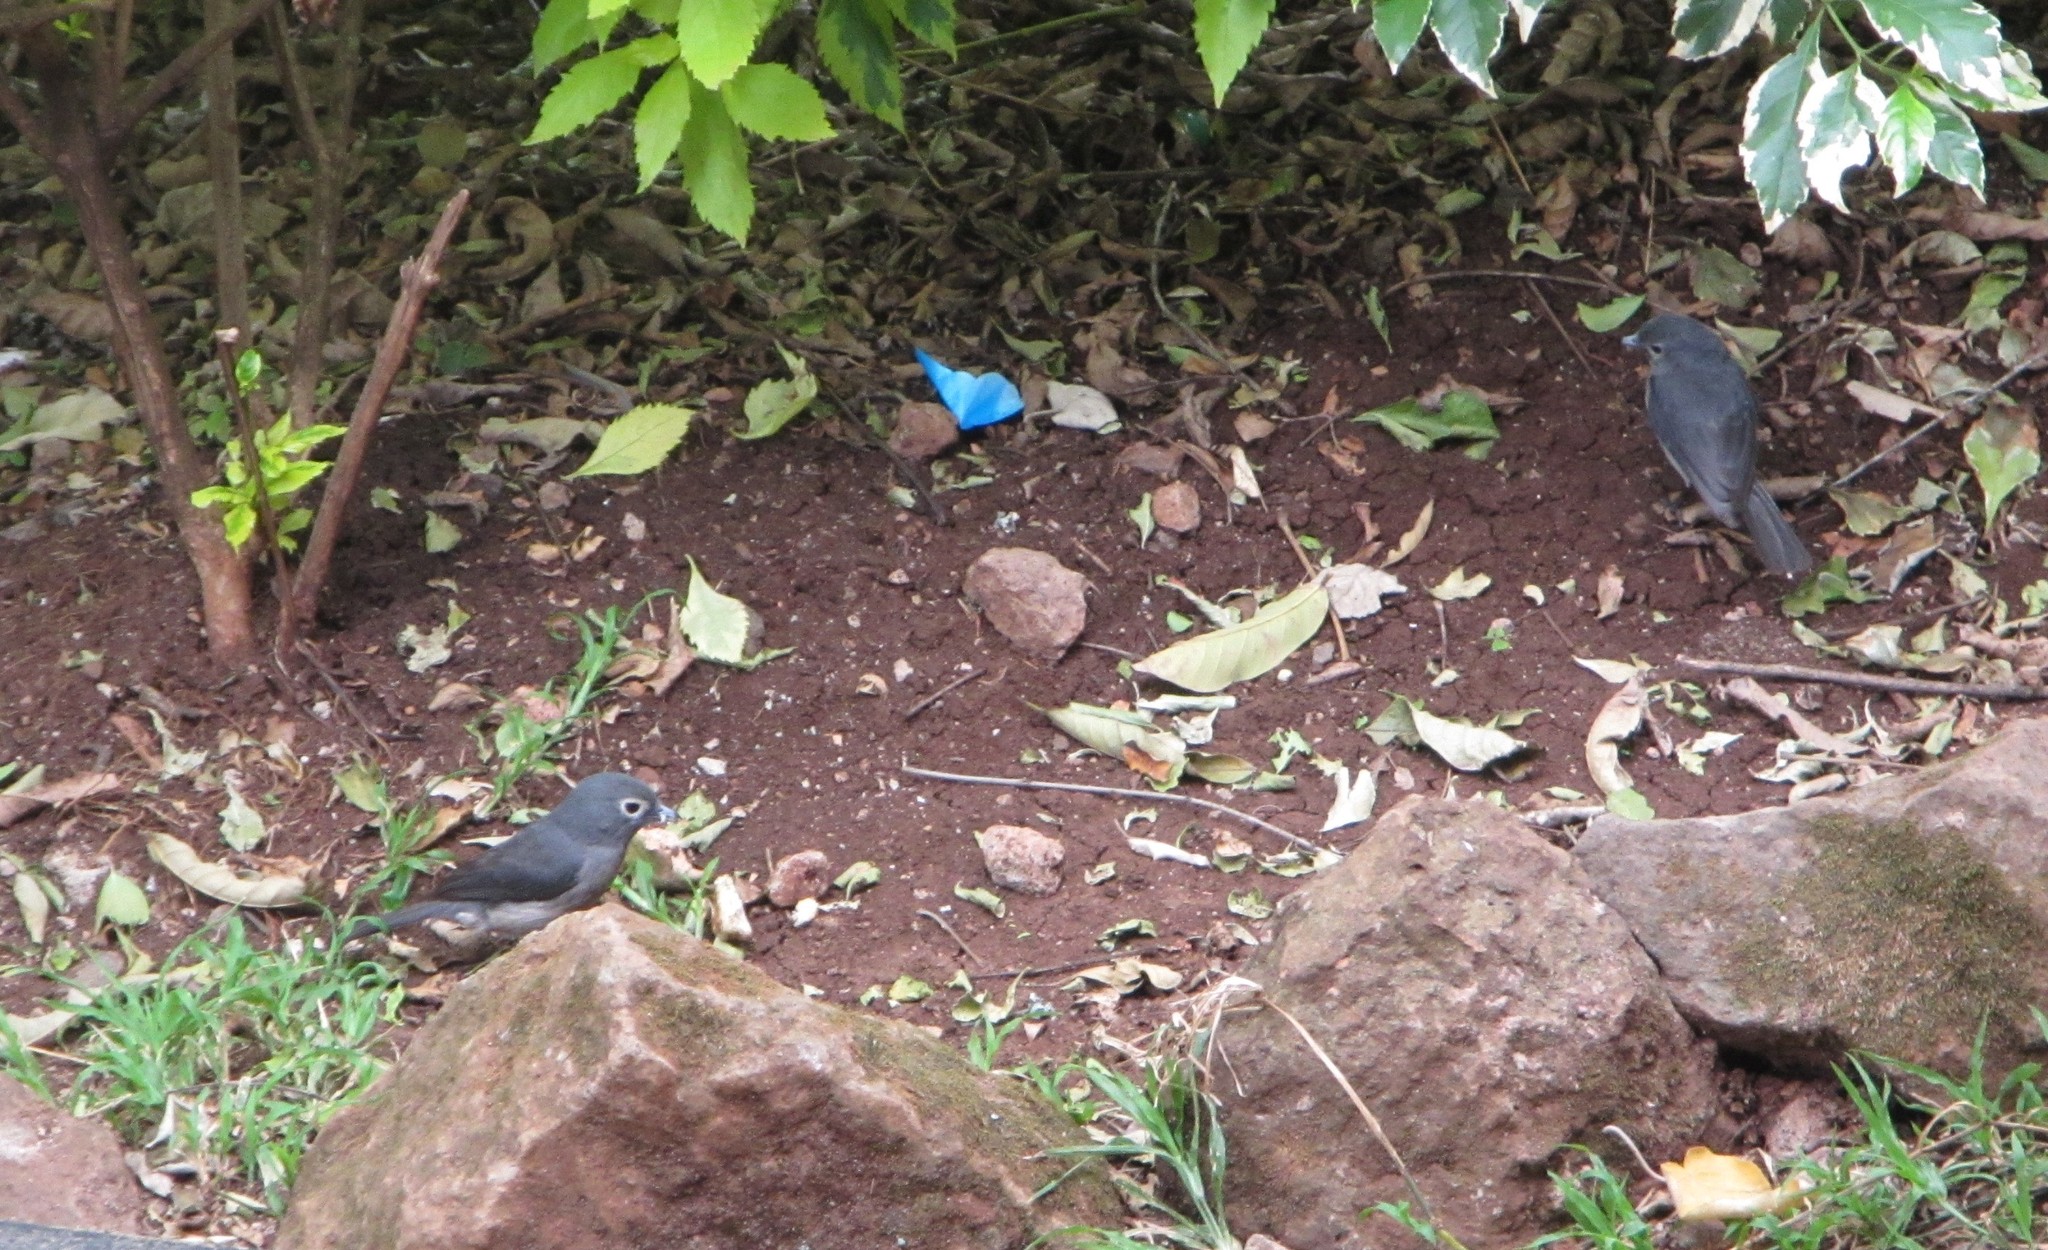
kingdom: Animalia
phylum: Chordata
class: Aves
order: Passeriformes
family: Muscicapidae
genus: Dioptrornis
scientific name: Dioptrornis fischeri
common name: White-eyed slaty flycatcher
